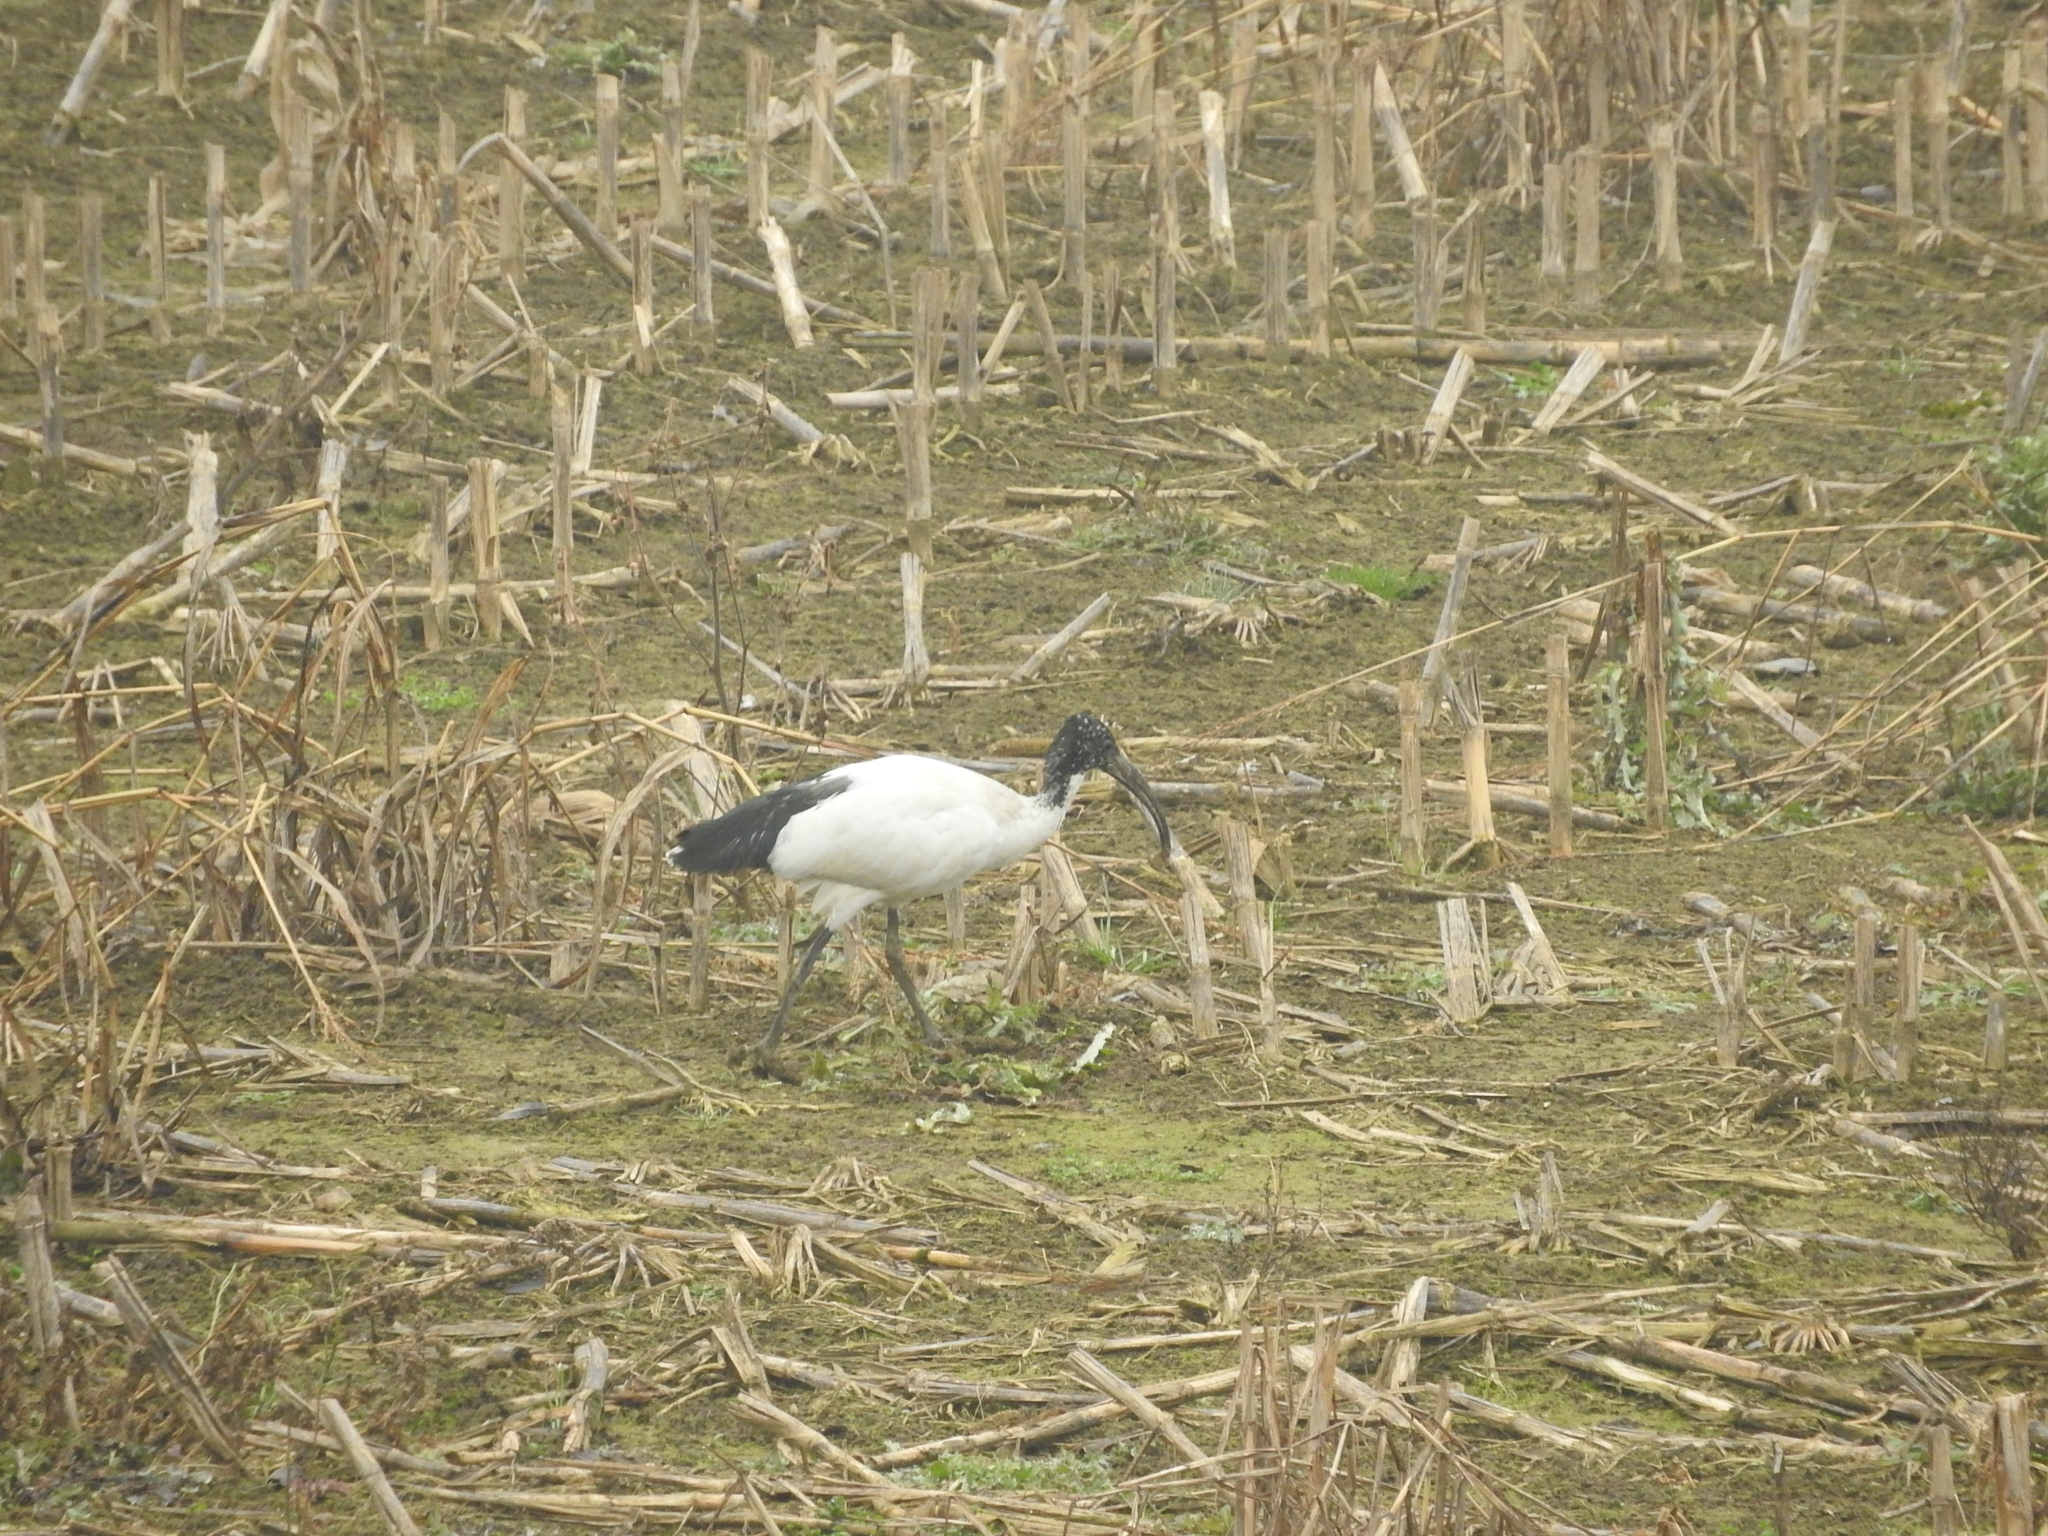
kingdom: Animalia
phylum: Chordata
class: Aves
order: Pelecaniformes
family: Threskiornithidae
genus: Threskiornis
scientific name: Threskiornis aethiopicus
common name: Sacred ibis
